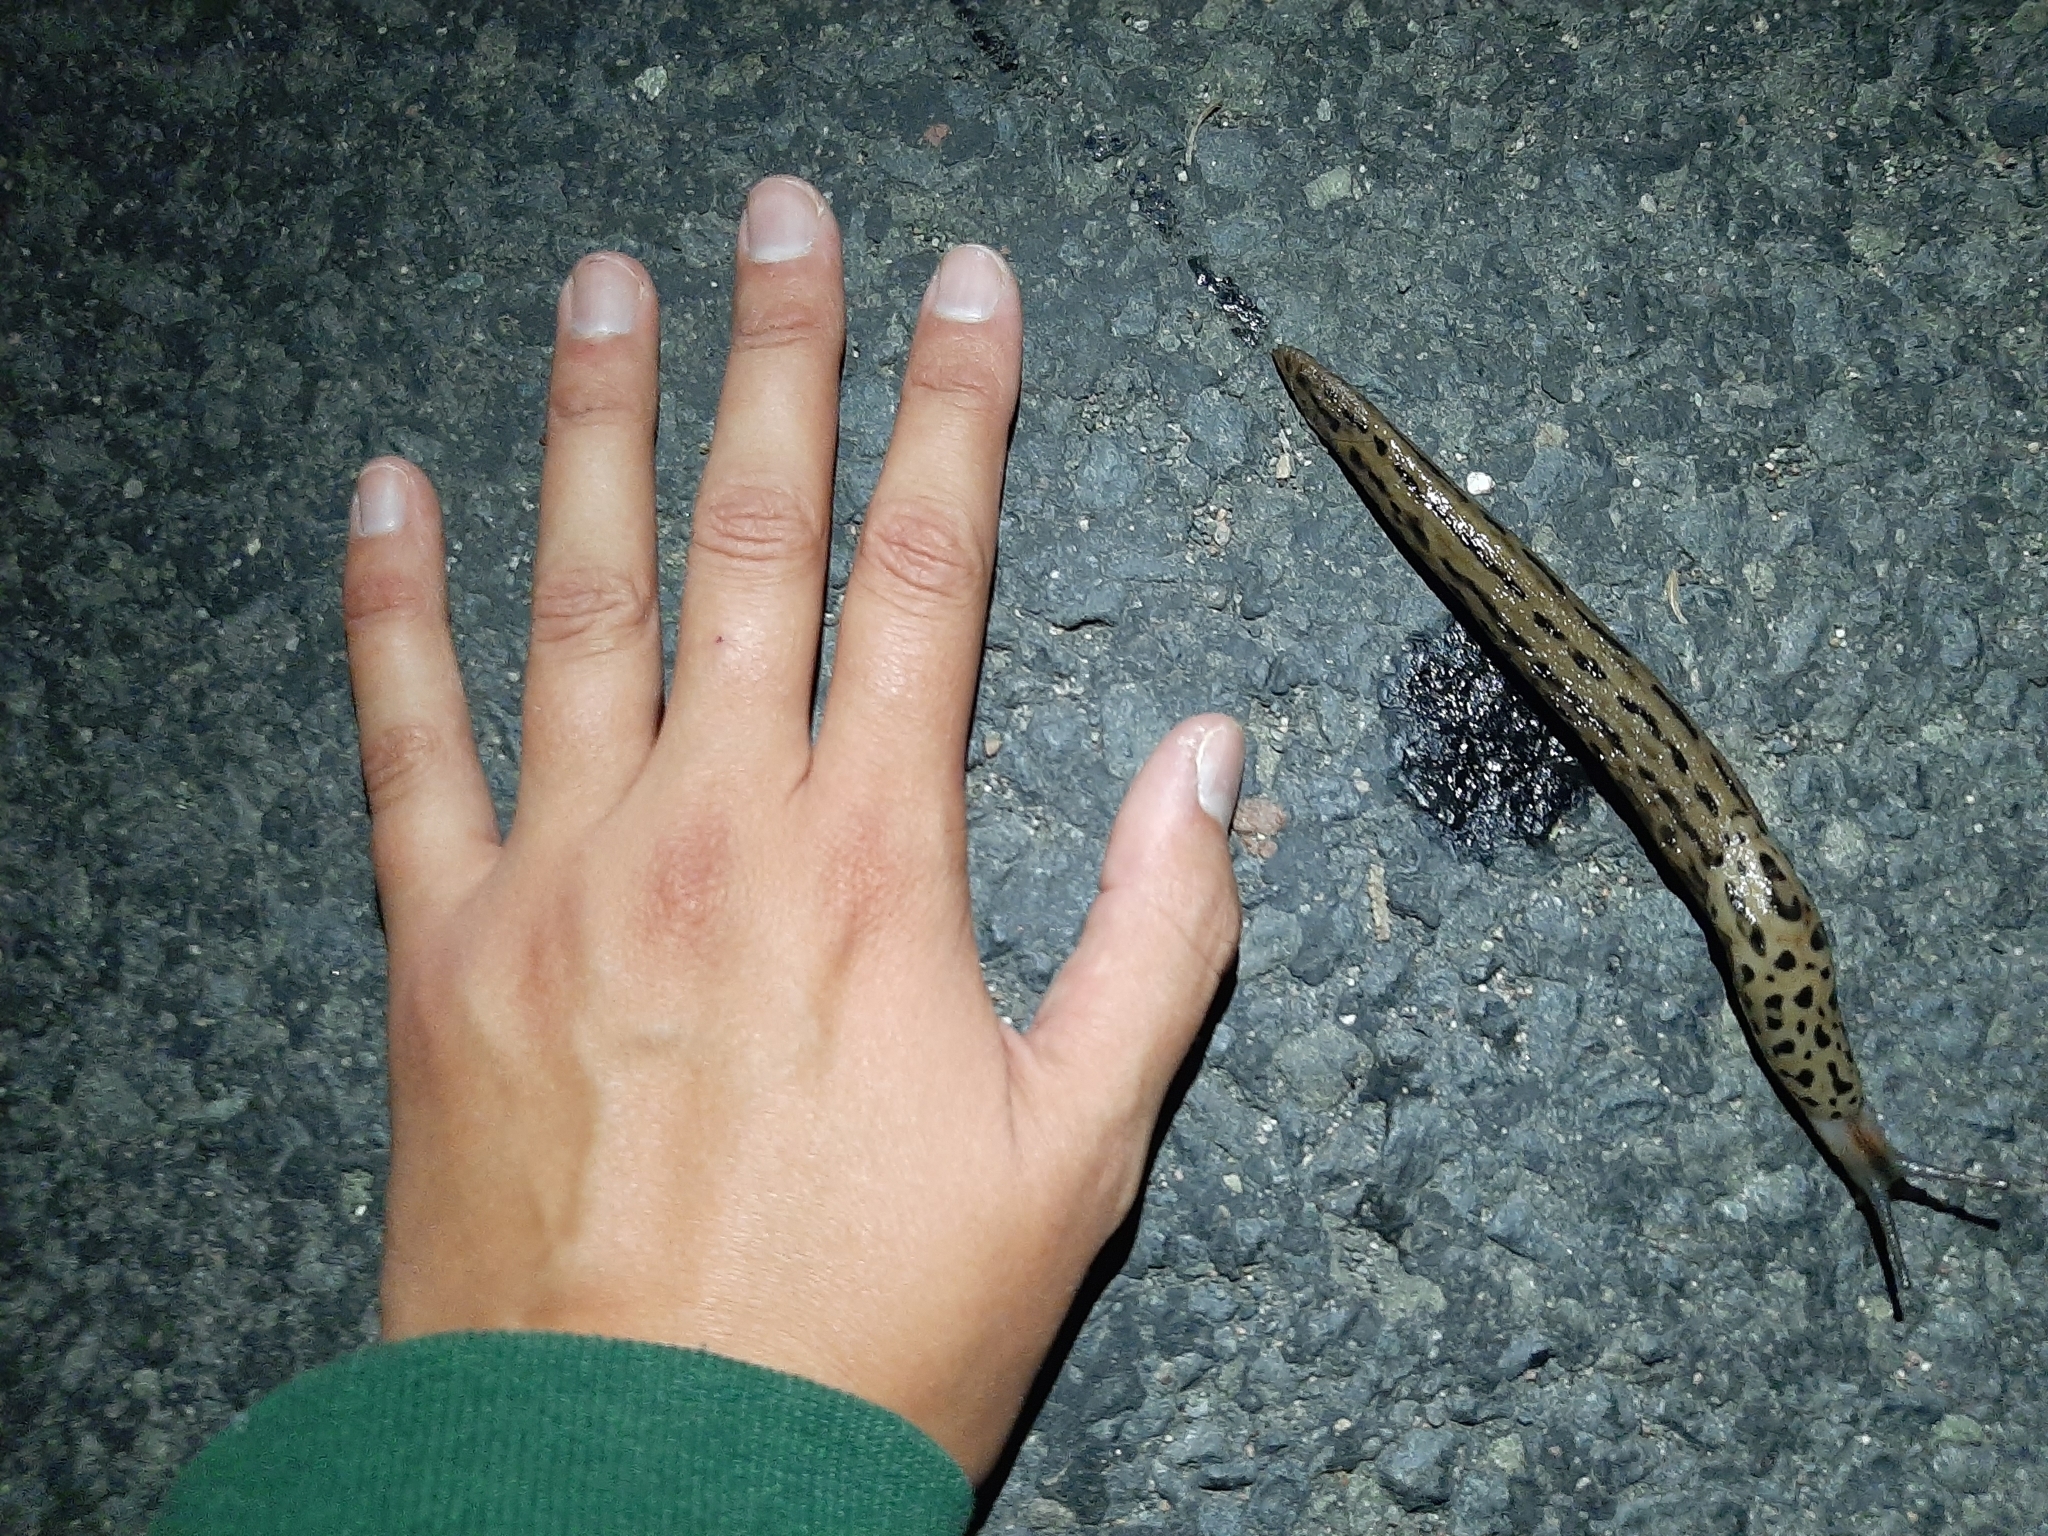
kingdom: Animalia
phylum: Mollusca
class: Gastropoda
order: Stylommatophora
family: Limacidae
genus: Limax
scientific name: Limax maximus
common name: Great grey slug
